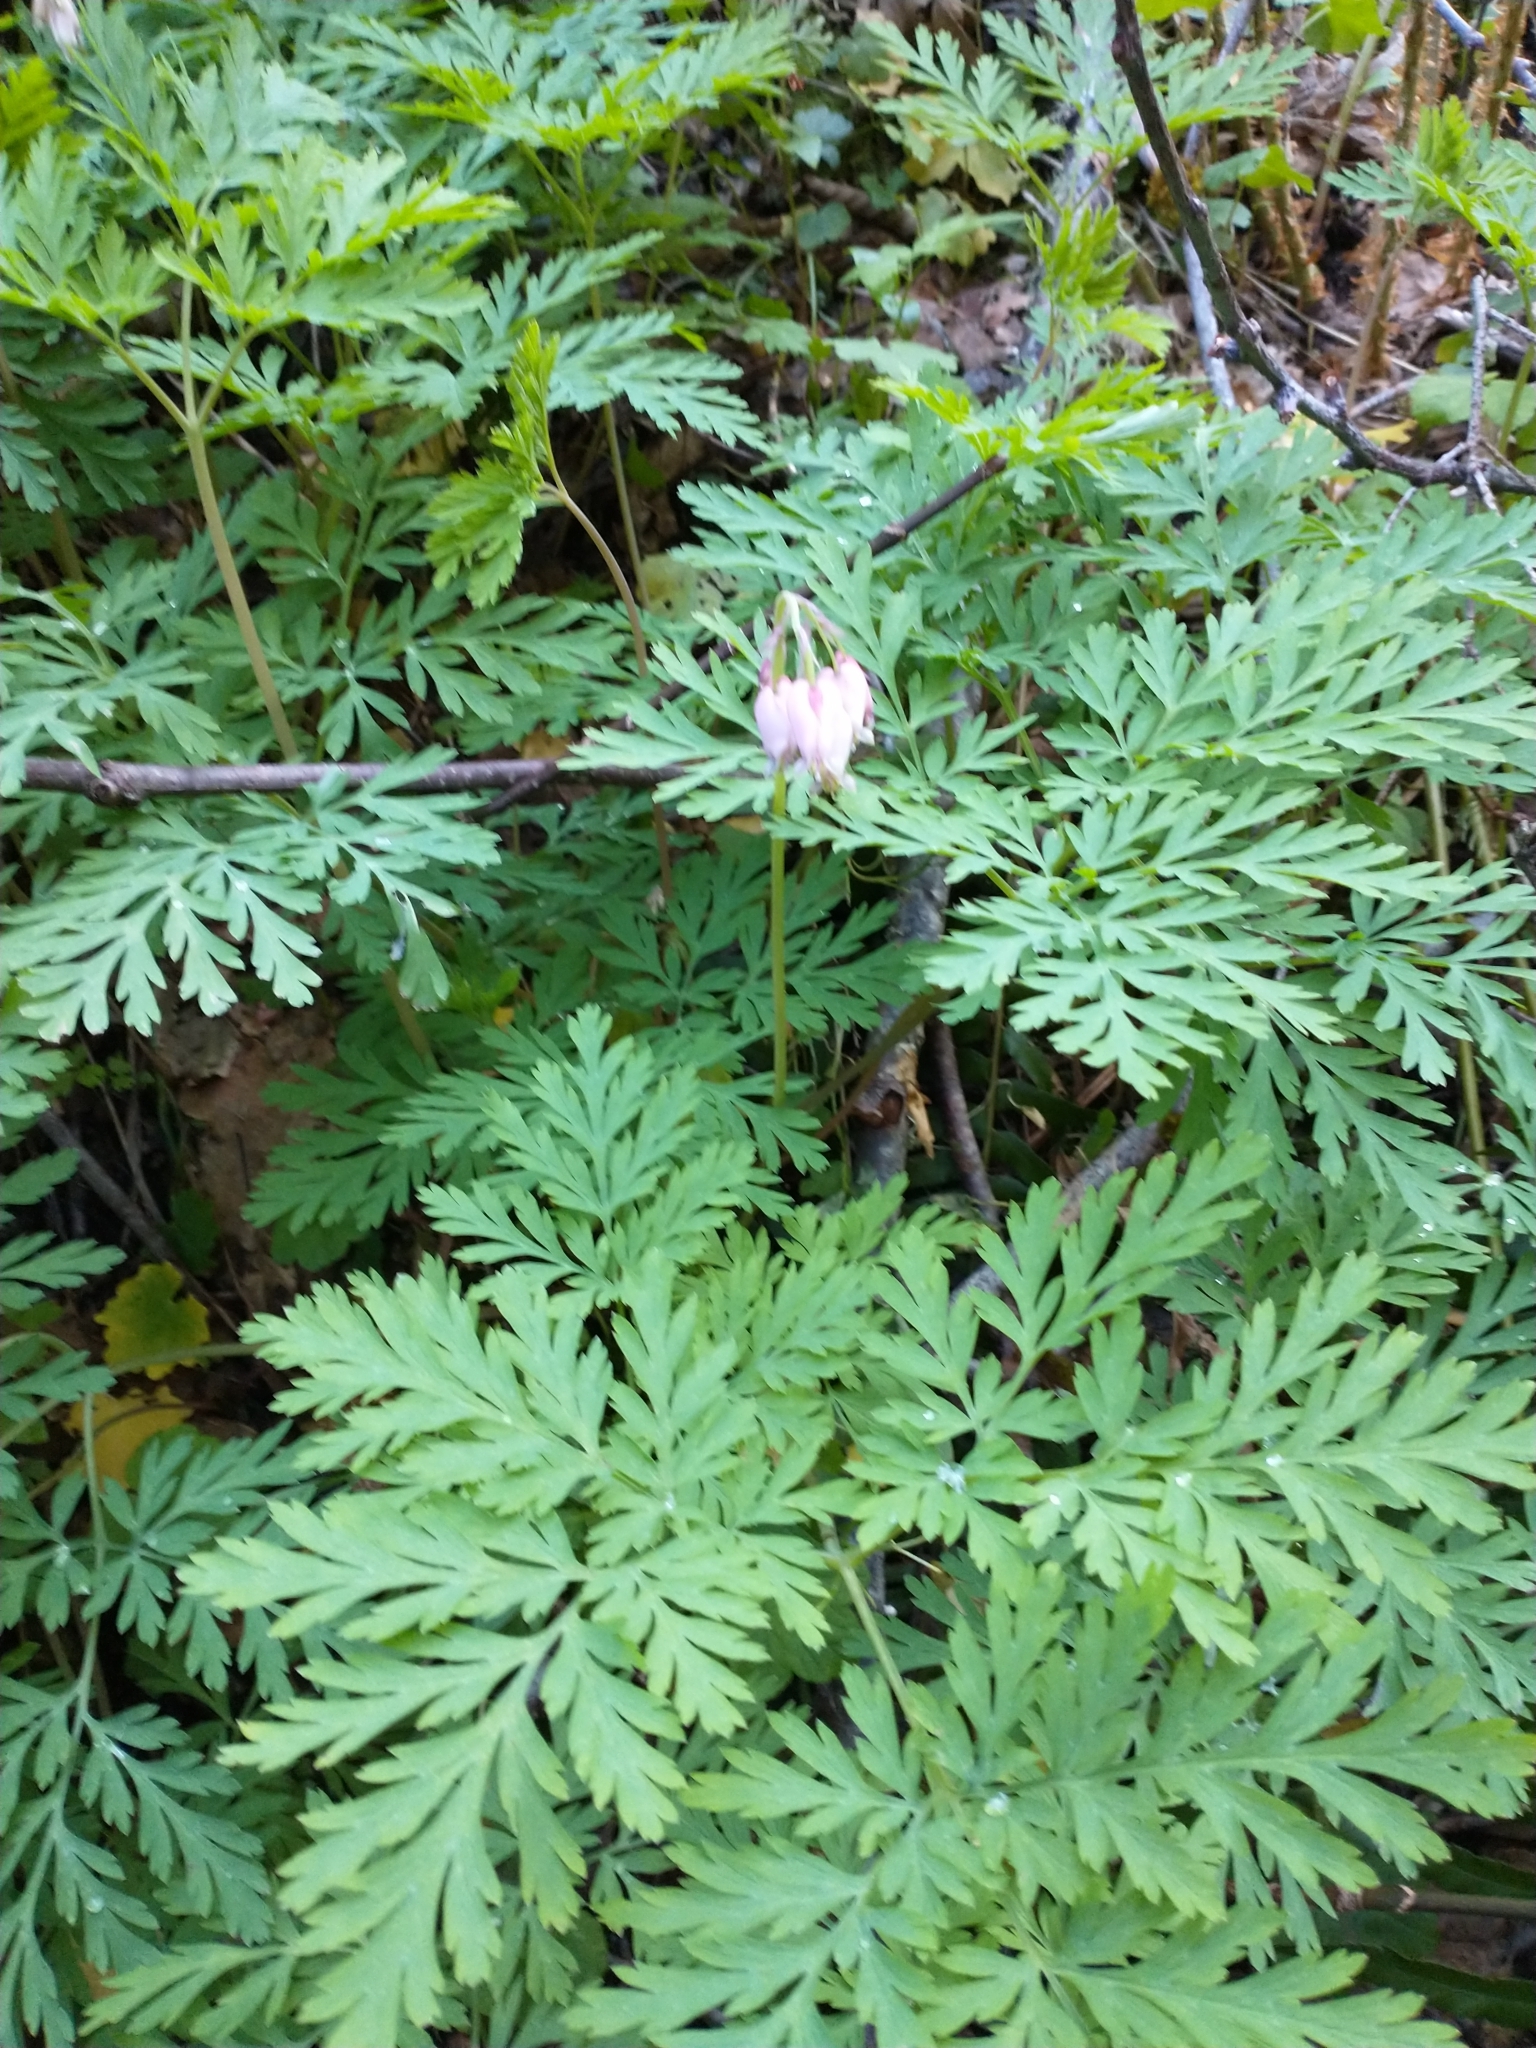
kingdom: Plantae
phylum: Tracheophyta
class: Magnoliopsida
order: Ranunculales
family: Papaveraceae
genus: Dicentra
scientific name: Dicentra formosa
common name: Bleeding-heart
